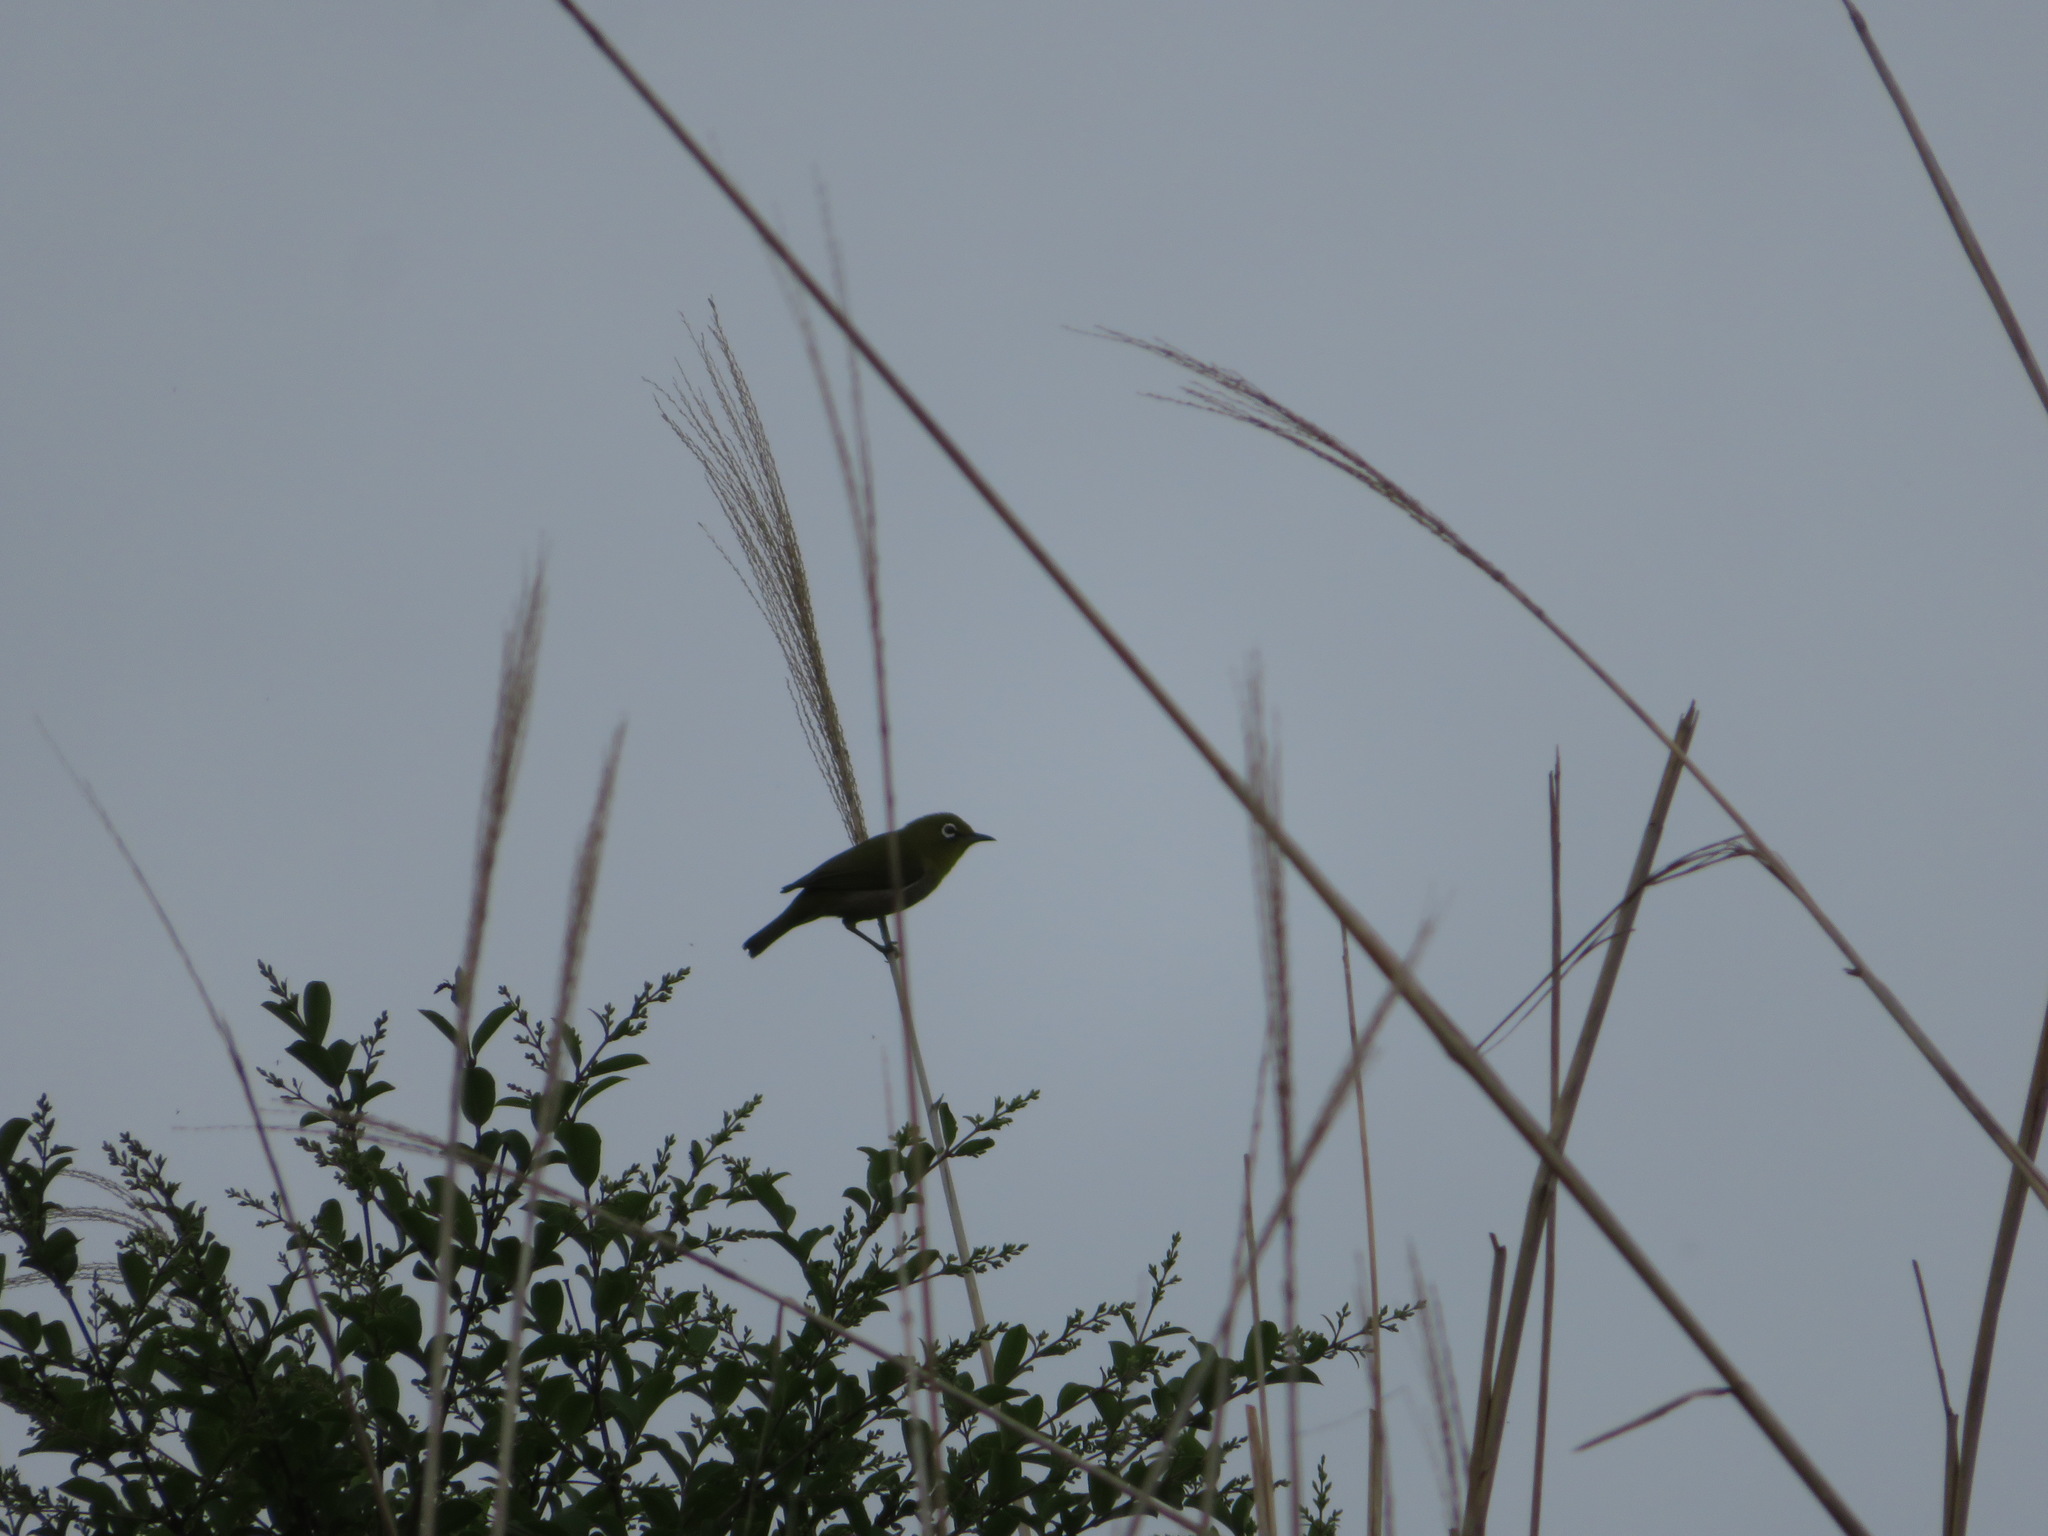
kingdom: Animalia
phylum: Chordata
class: Aves
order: Passeriformes
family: Zosteropidae
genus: Zosterops
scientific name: Zosterops japonicus
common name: Japanese white-eye
